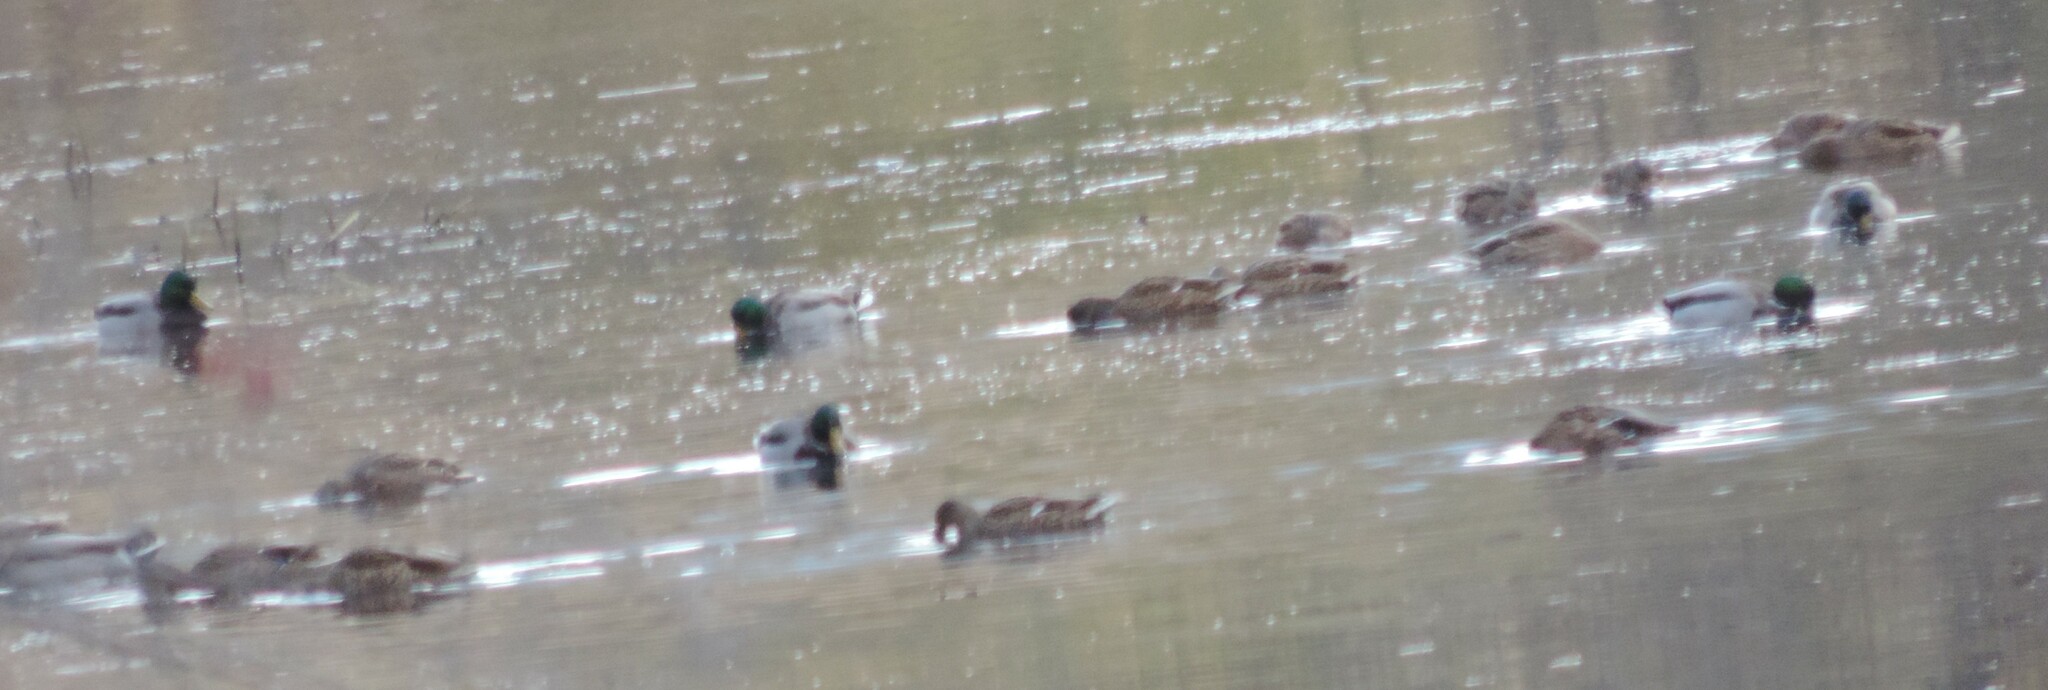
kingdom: Animalia
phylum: Chordata
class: Aves
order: Anseriformes
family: Anatidae
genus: Anas
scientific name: Anas platyrhynchos
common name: Mallard
